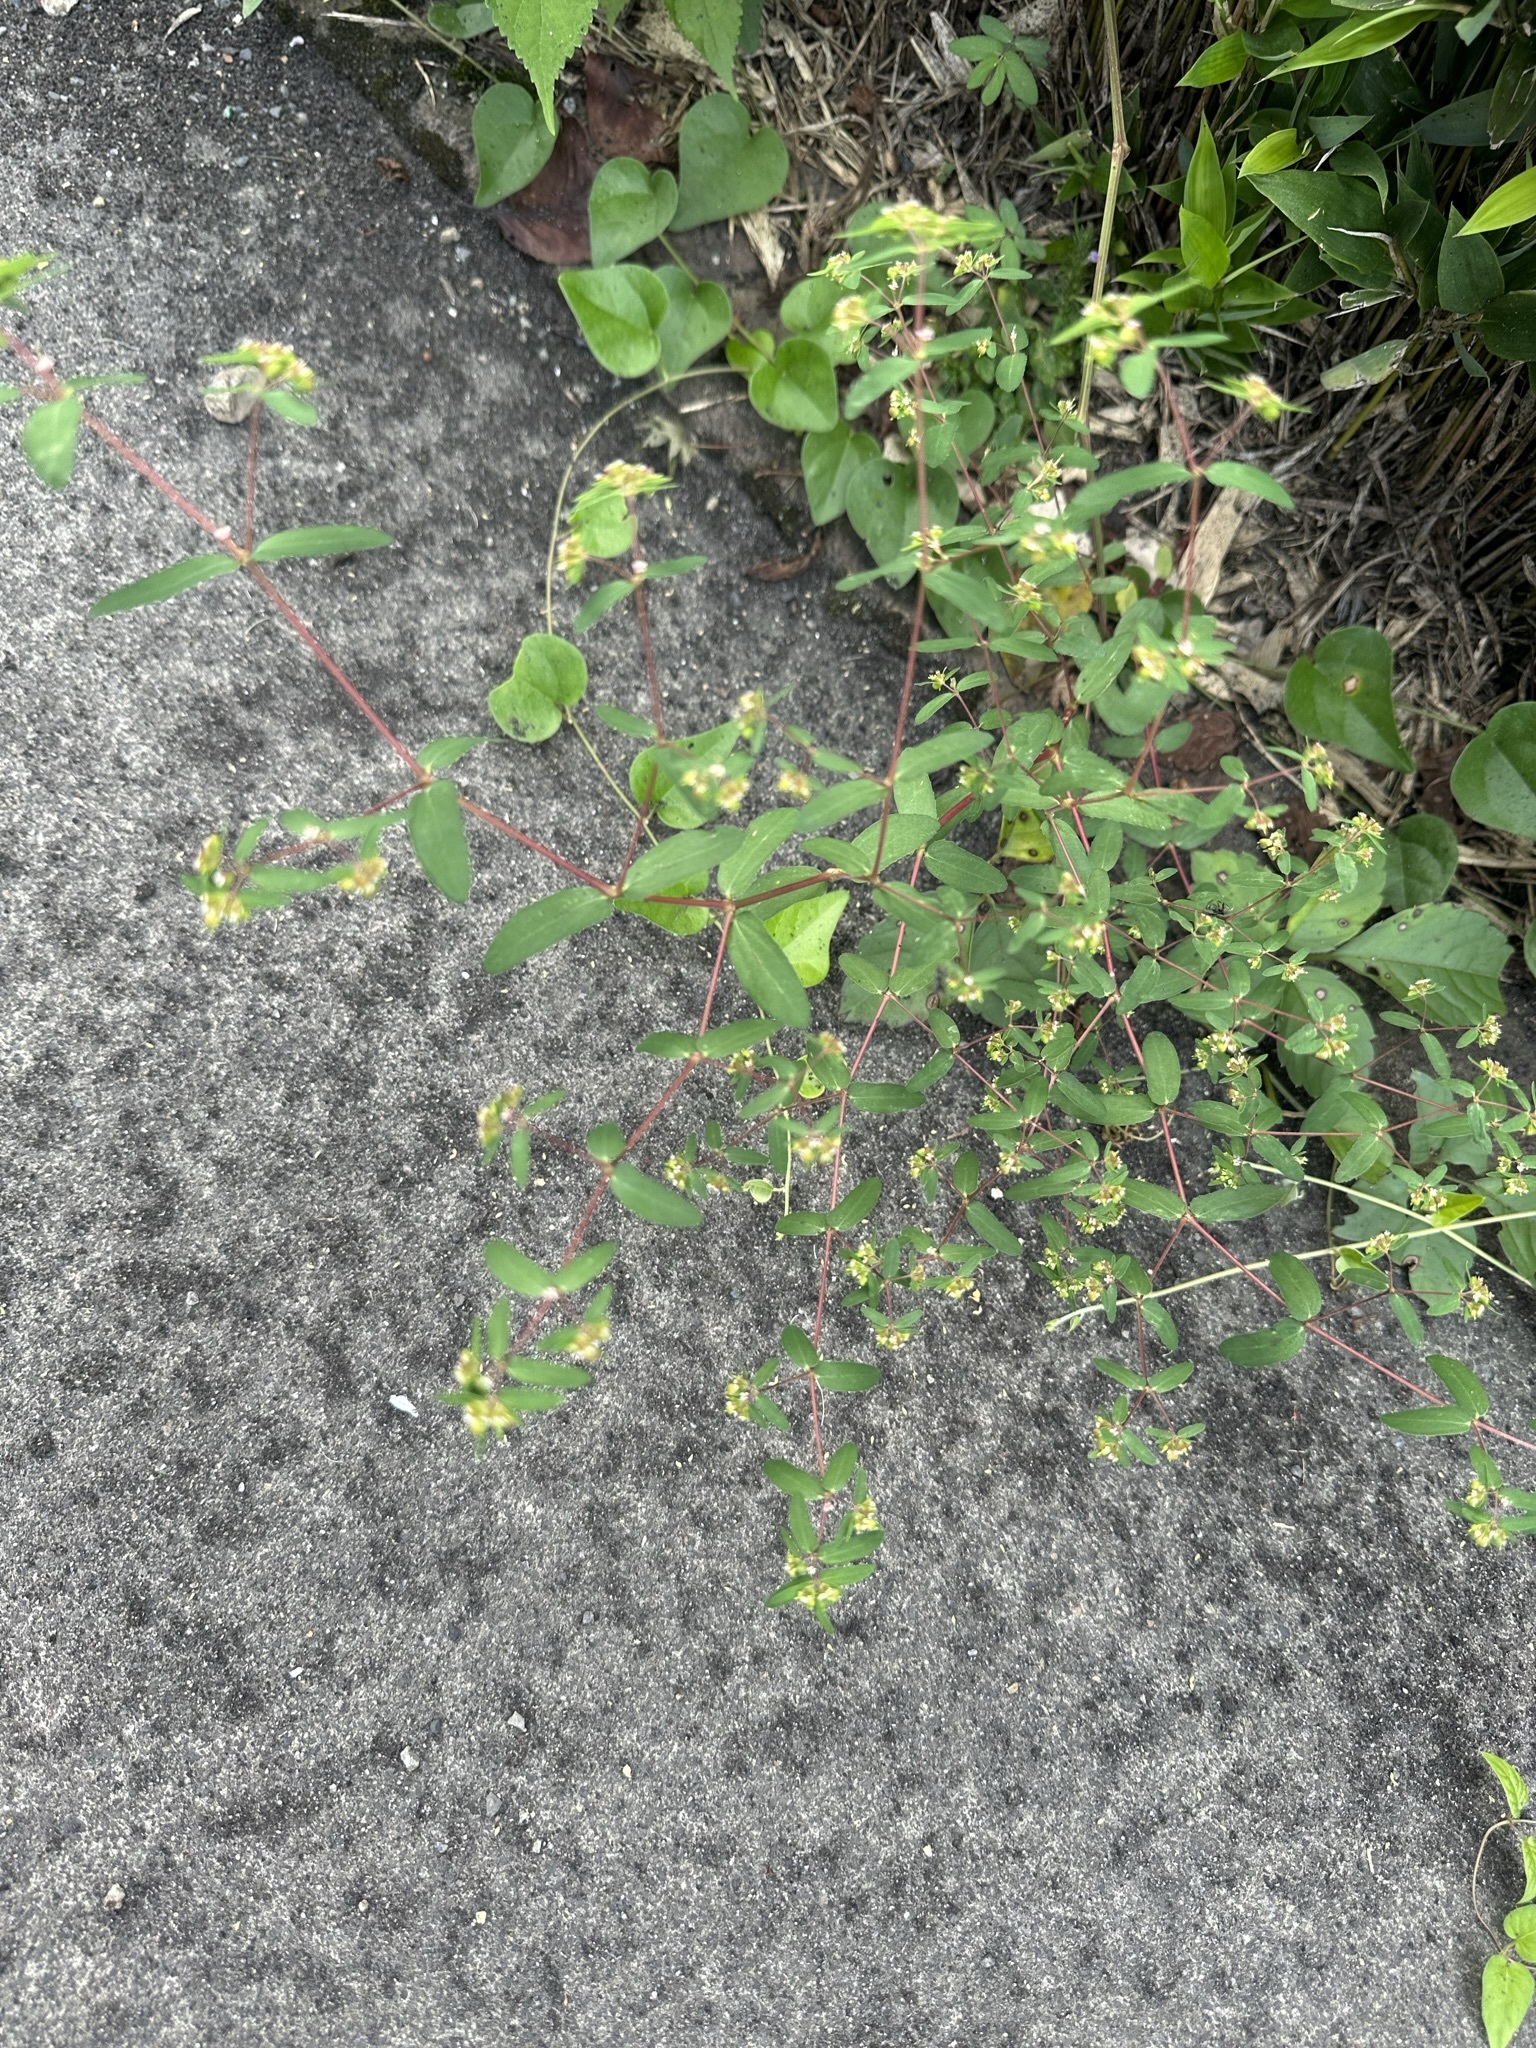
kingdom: Plantae
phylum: Tracheophyta
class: Magnoliopsida
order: Malpighiales
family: Euphorbiaceae
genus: Euphorbia
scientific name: Euphorbia nutans
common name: Eyebane
